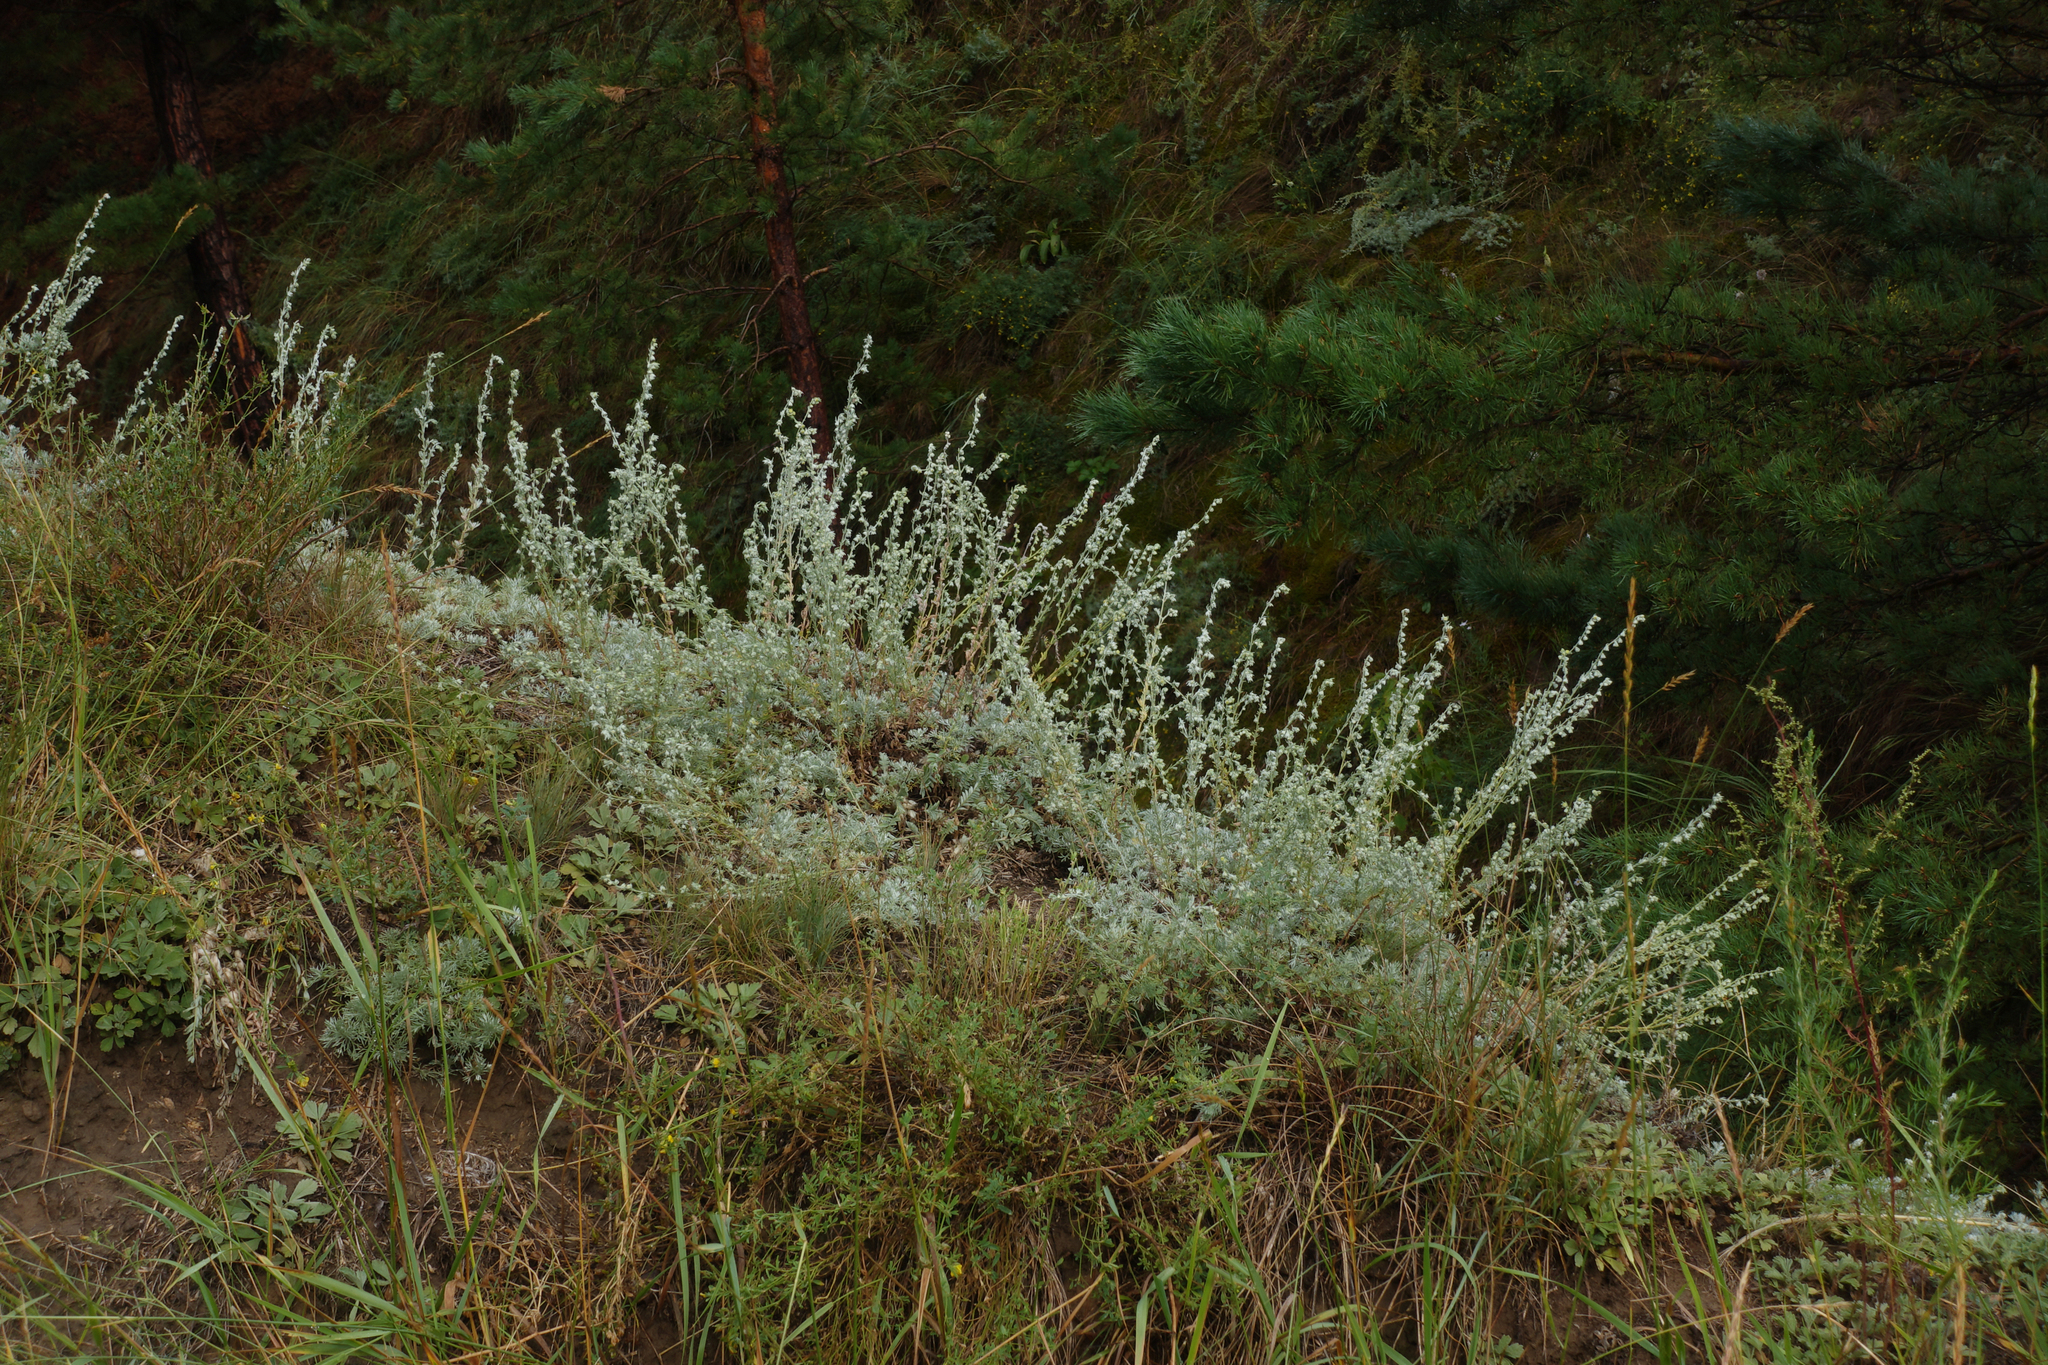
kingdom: Plantae
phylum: Tracheophyta
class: Magnoliopsida
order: Asterales
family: Asteraceae
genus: Artemisia
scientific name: Artemisia frigida
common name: Prairie sagewort
